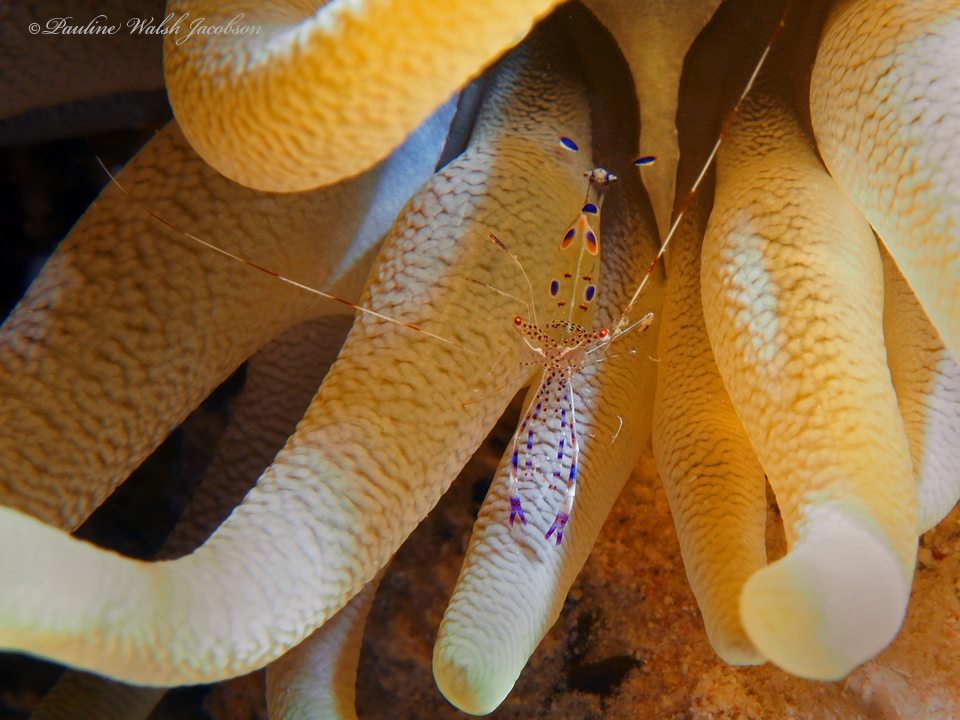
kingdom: Animalia
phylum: Arthropoda
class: Malacostraca
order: Decapoda
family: Palaemonidae
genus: Periclimenes
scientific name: Periclimenes yucatanicus
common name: Spotted cleaning shrimp
